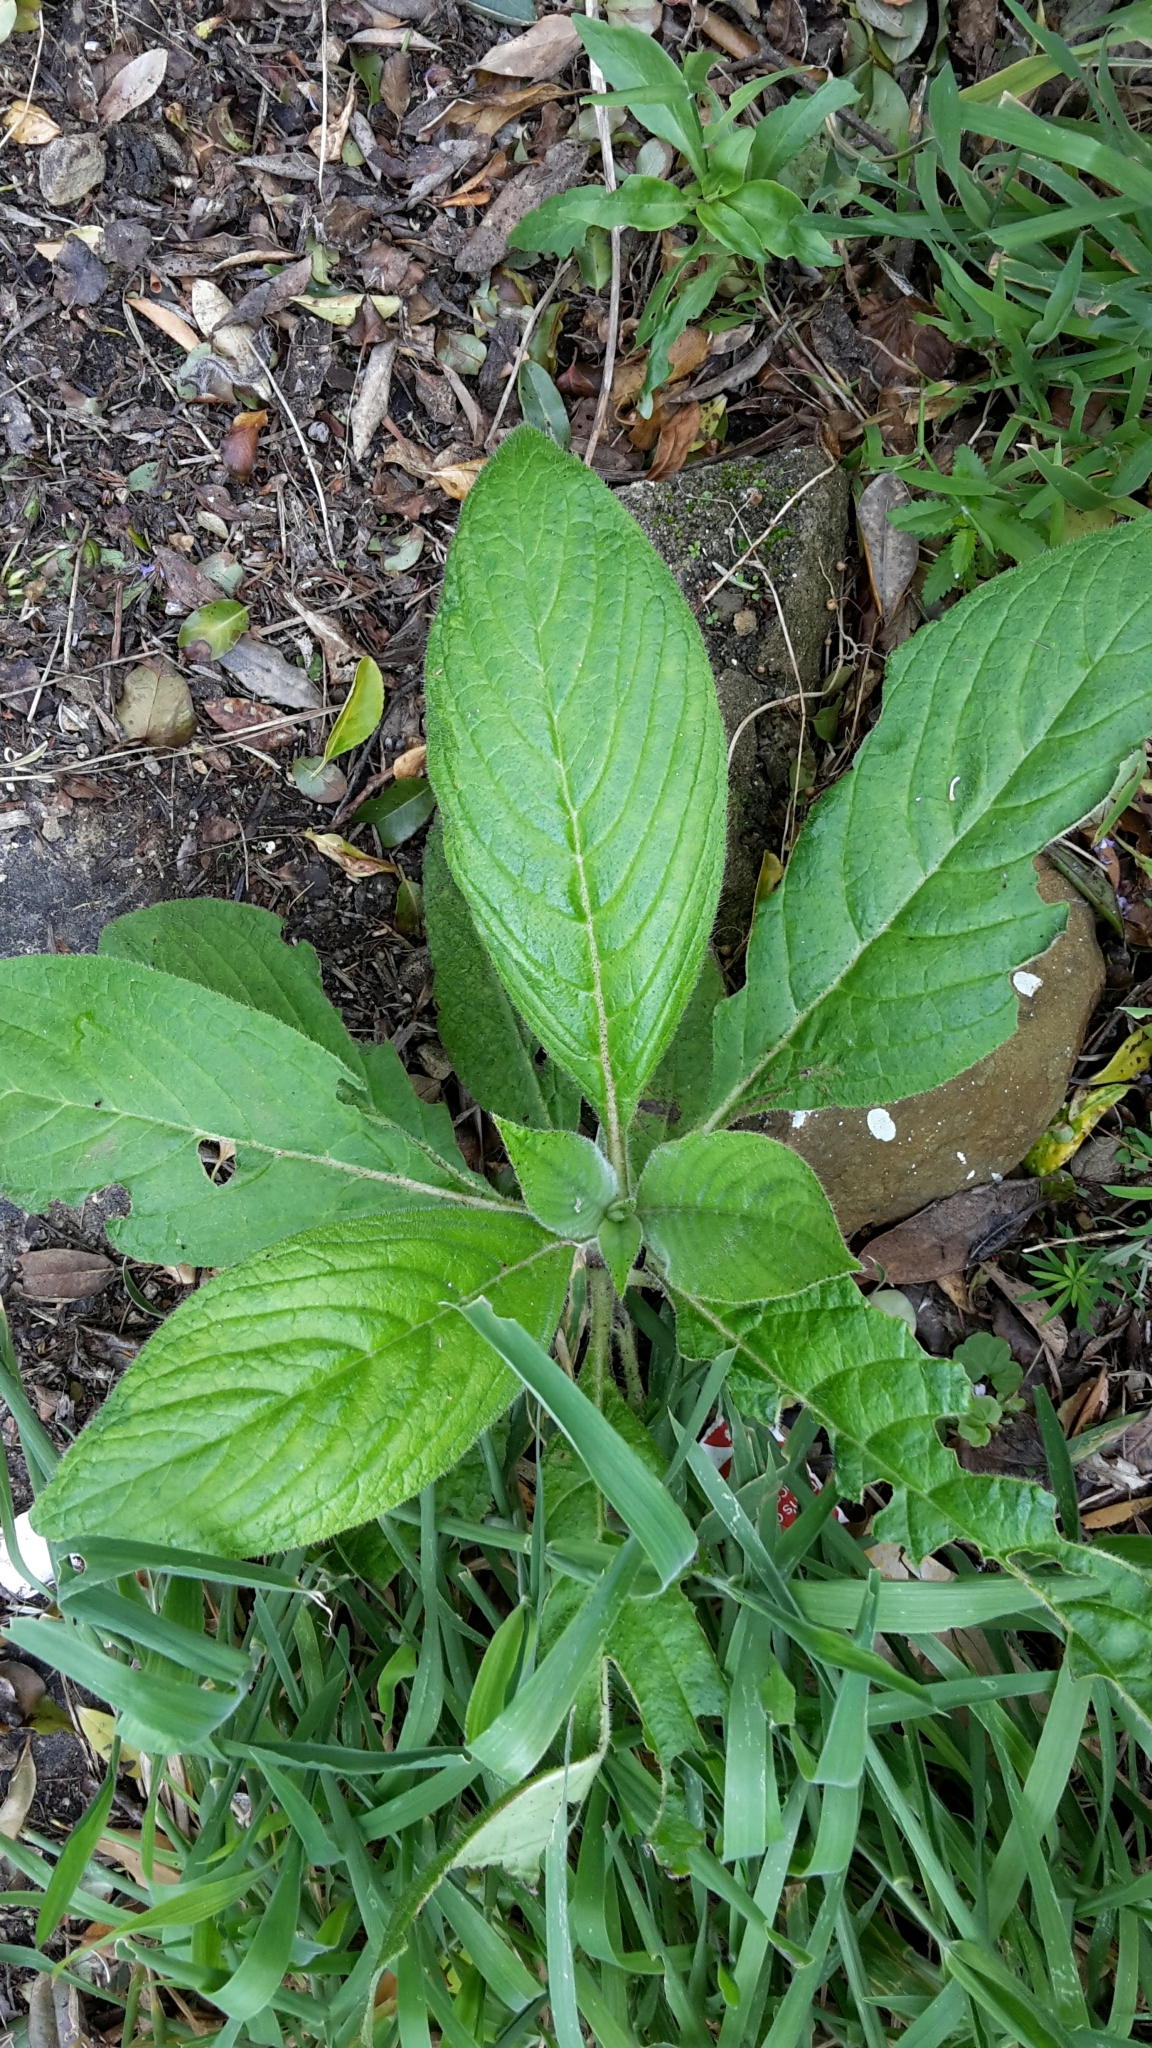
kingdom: Plantae
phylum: Tracheophyta
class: Magnoliopsida
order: Boraginales
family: Boraginaceae
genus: Echium
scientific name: Echium candicans
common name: Pride of madeira
